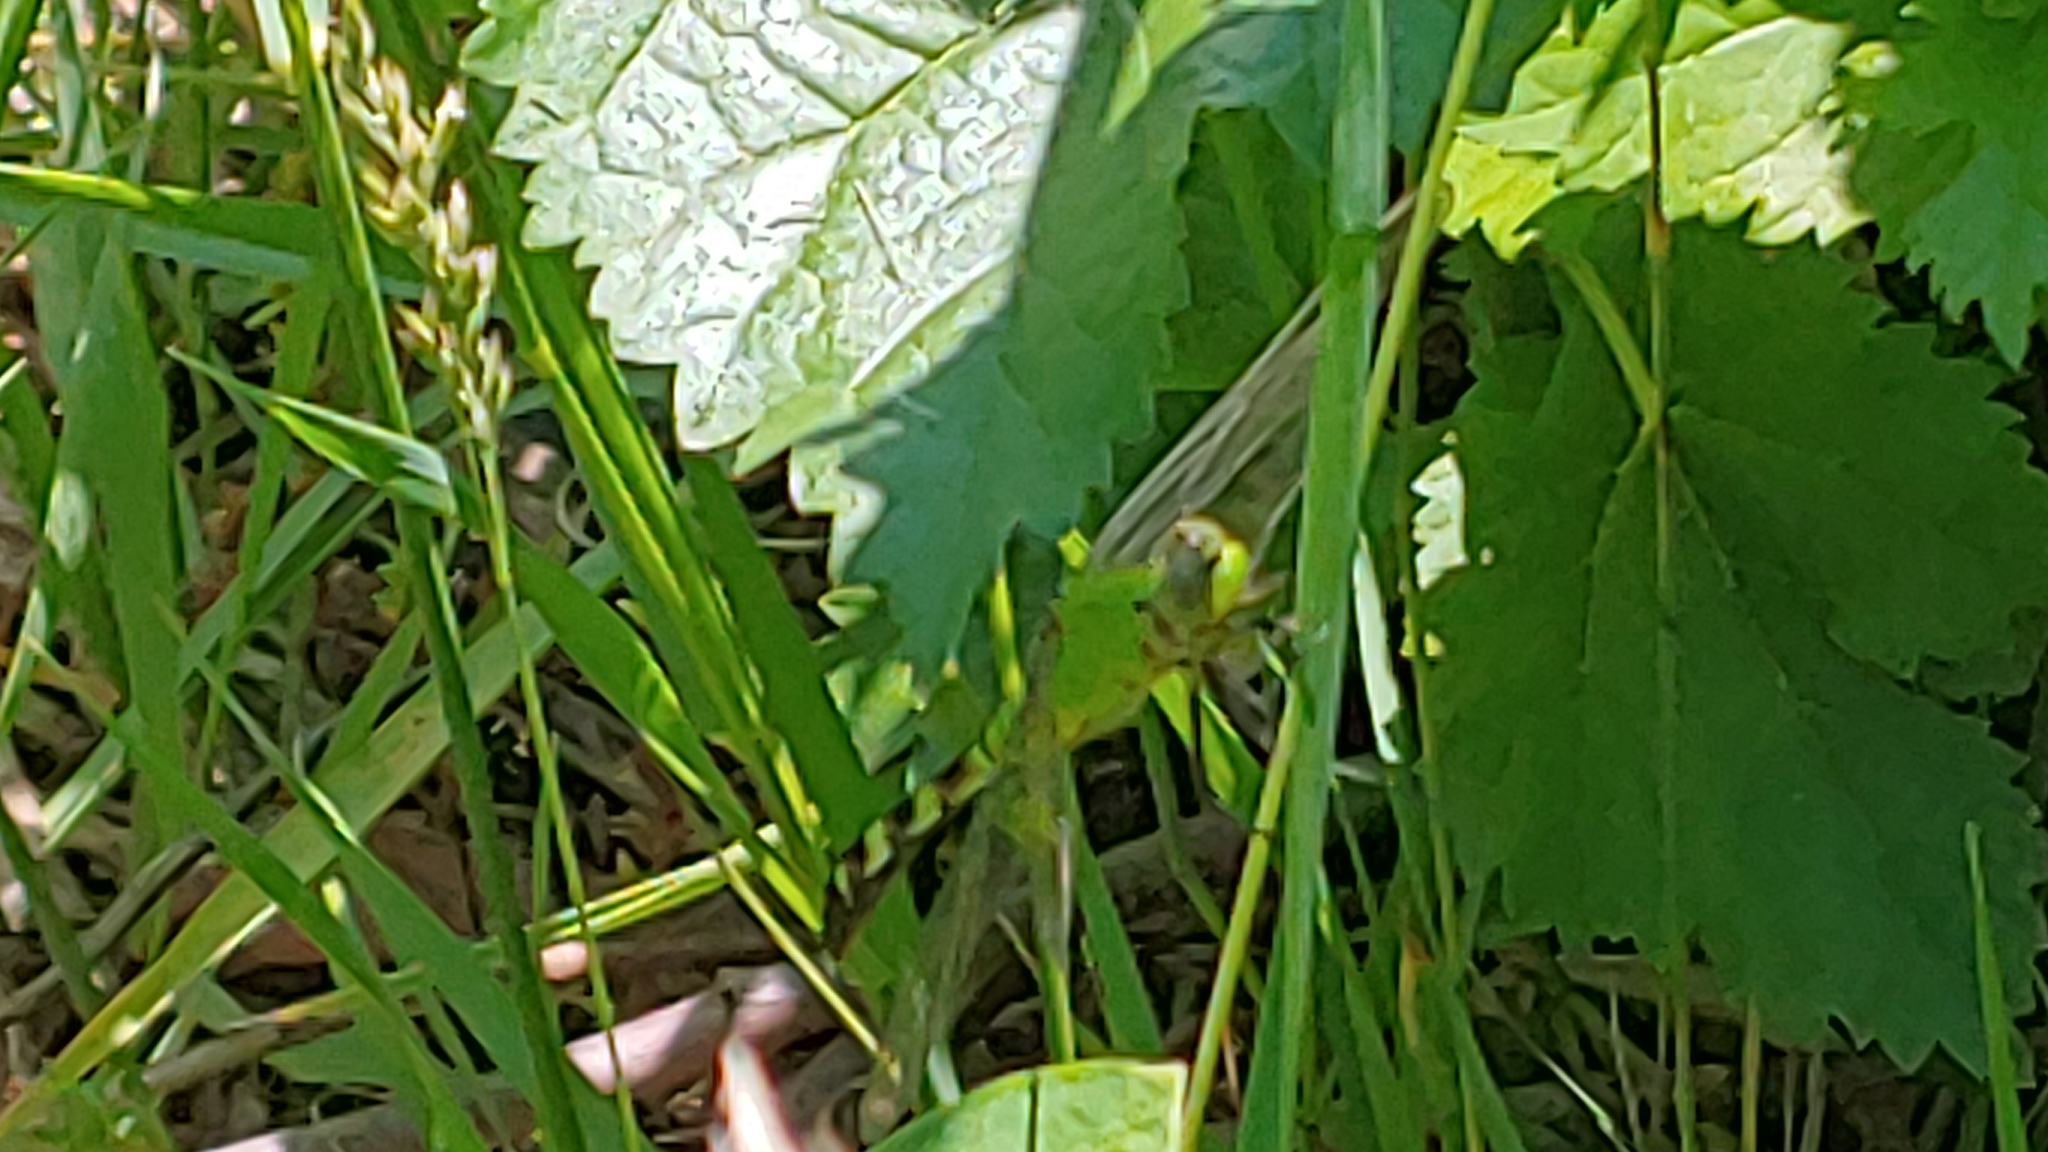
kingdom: Animalia
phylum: Arthropoda
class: Insecta
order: Odonata
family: Libellulidae
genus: Erythemis
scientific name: Erythemis simplicicollis
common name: Eastern pondhawk
